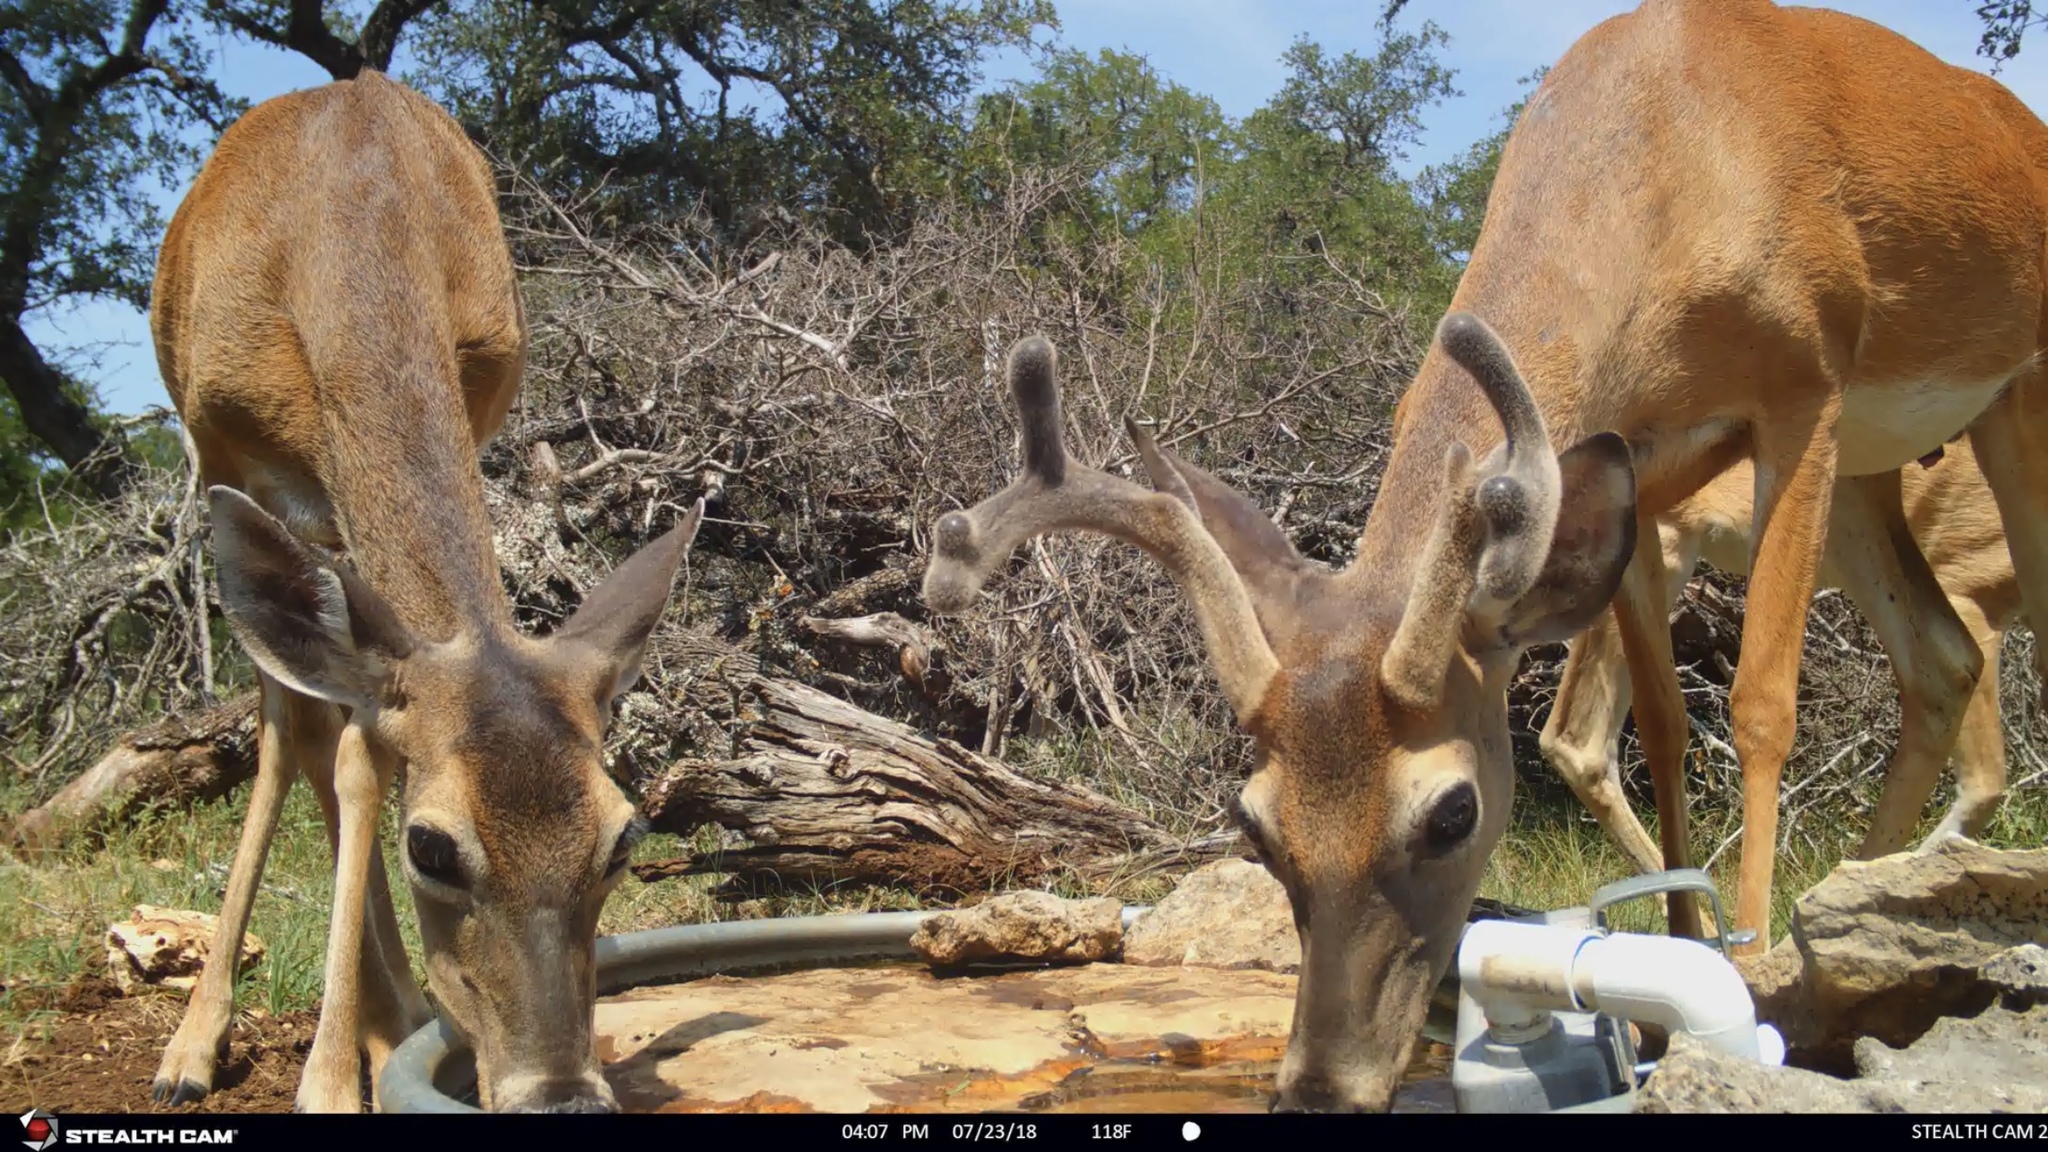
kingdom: Animalia
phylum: Chordata
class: Mammalia
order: Artiodactyla
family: Cervidae
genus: Odocoileus
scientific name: Odocoileus virginianus
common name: White-tailed deer
